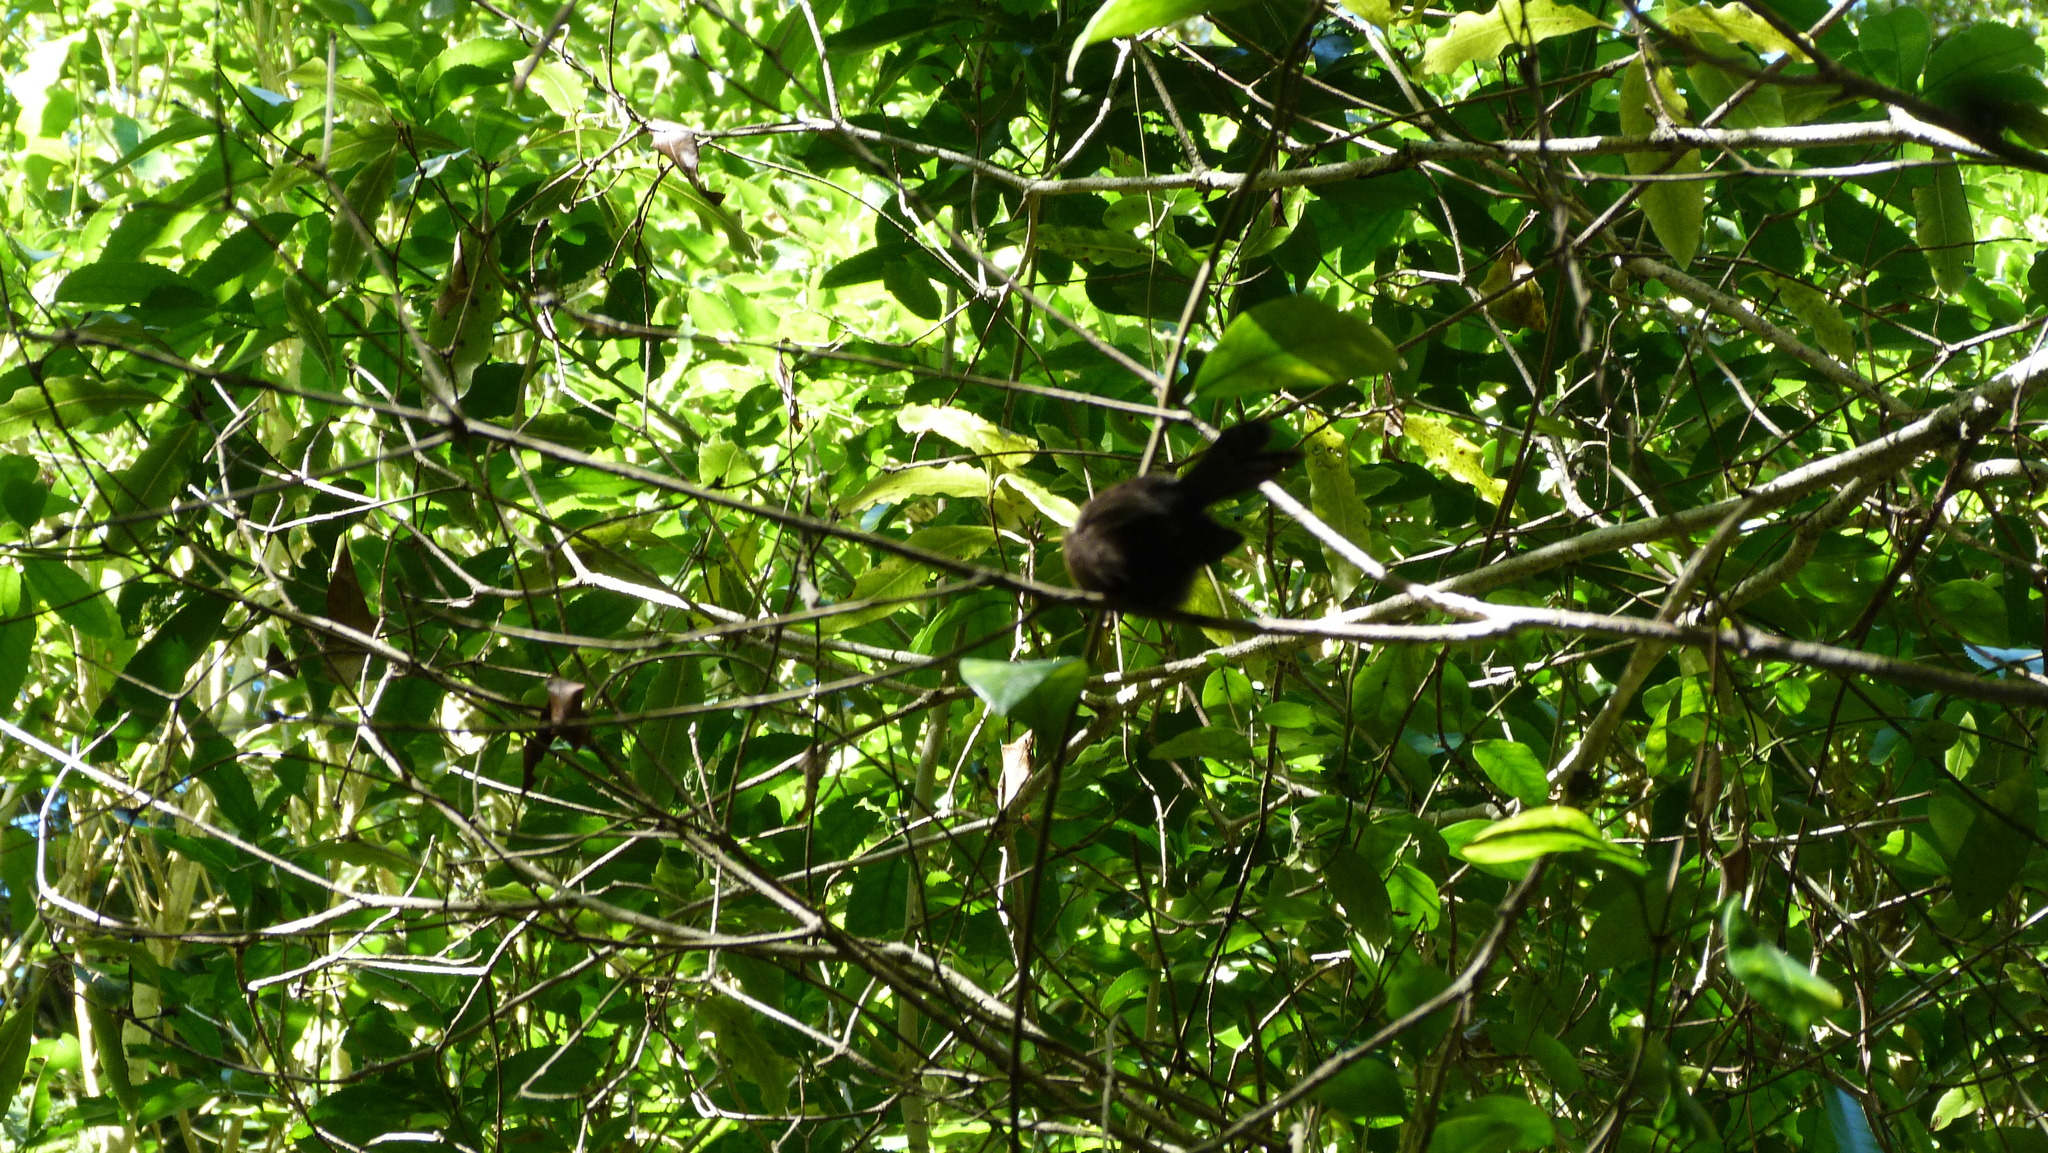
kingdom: Animalia
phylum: Chordata
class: Aves
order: Passeriformes
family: Rhipiduridae
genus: Rhipidura
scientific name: Rhipidura fuliginosa
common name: New zealand fantail
